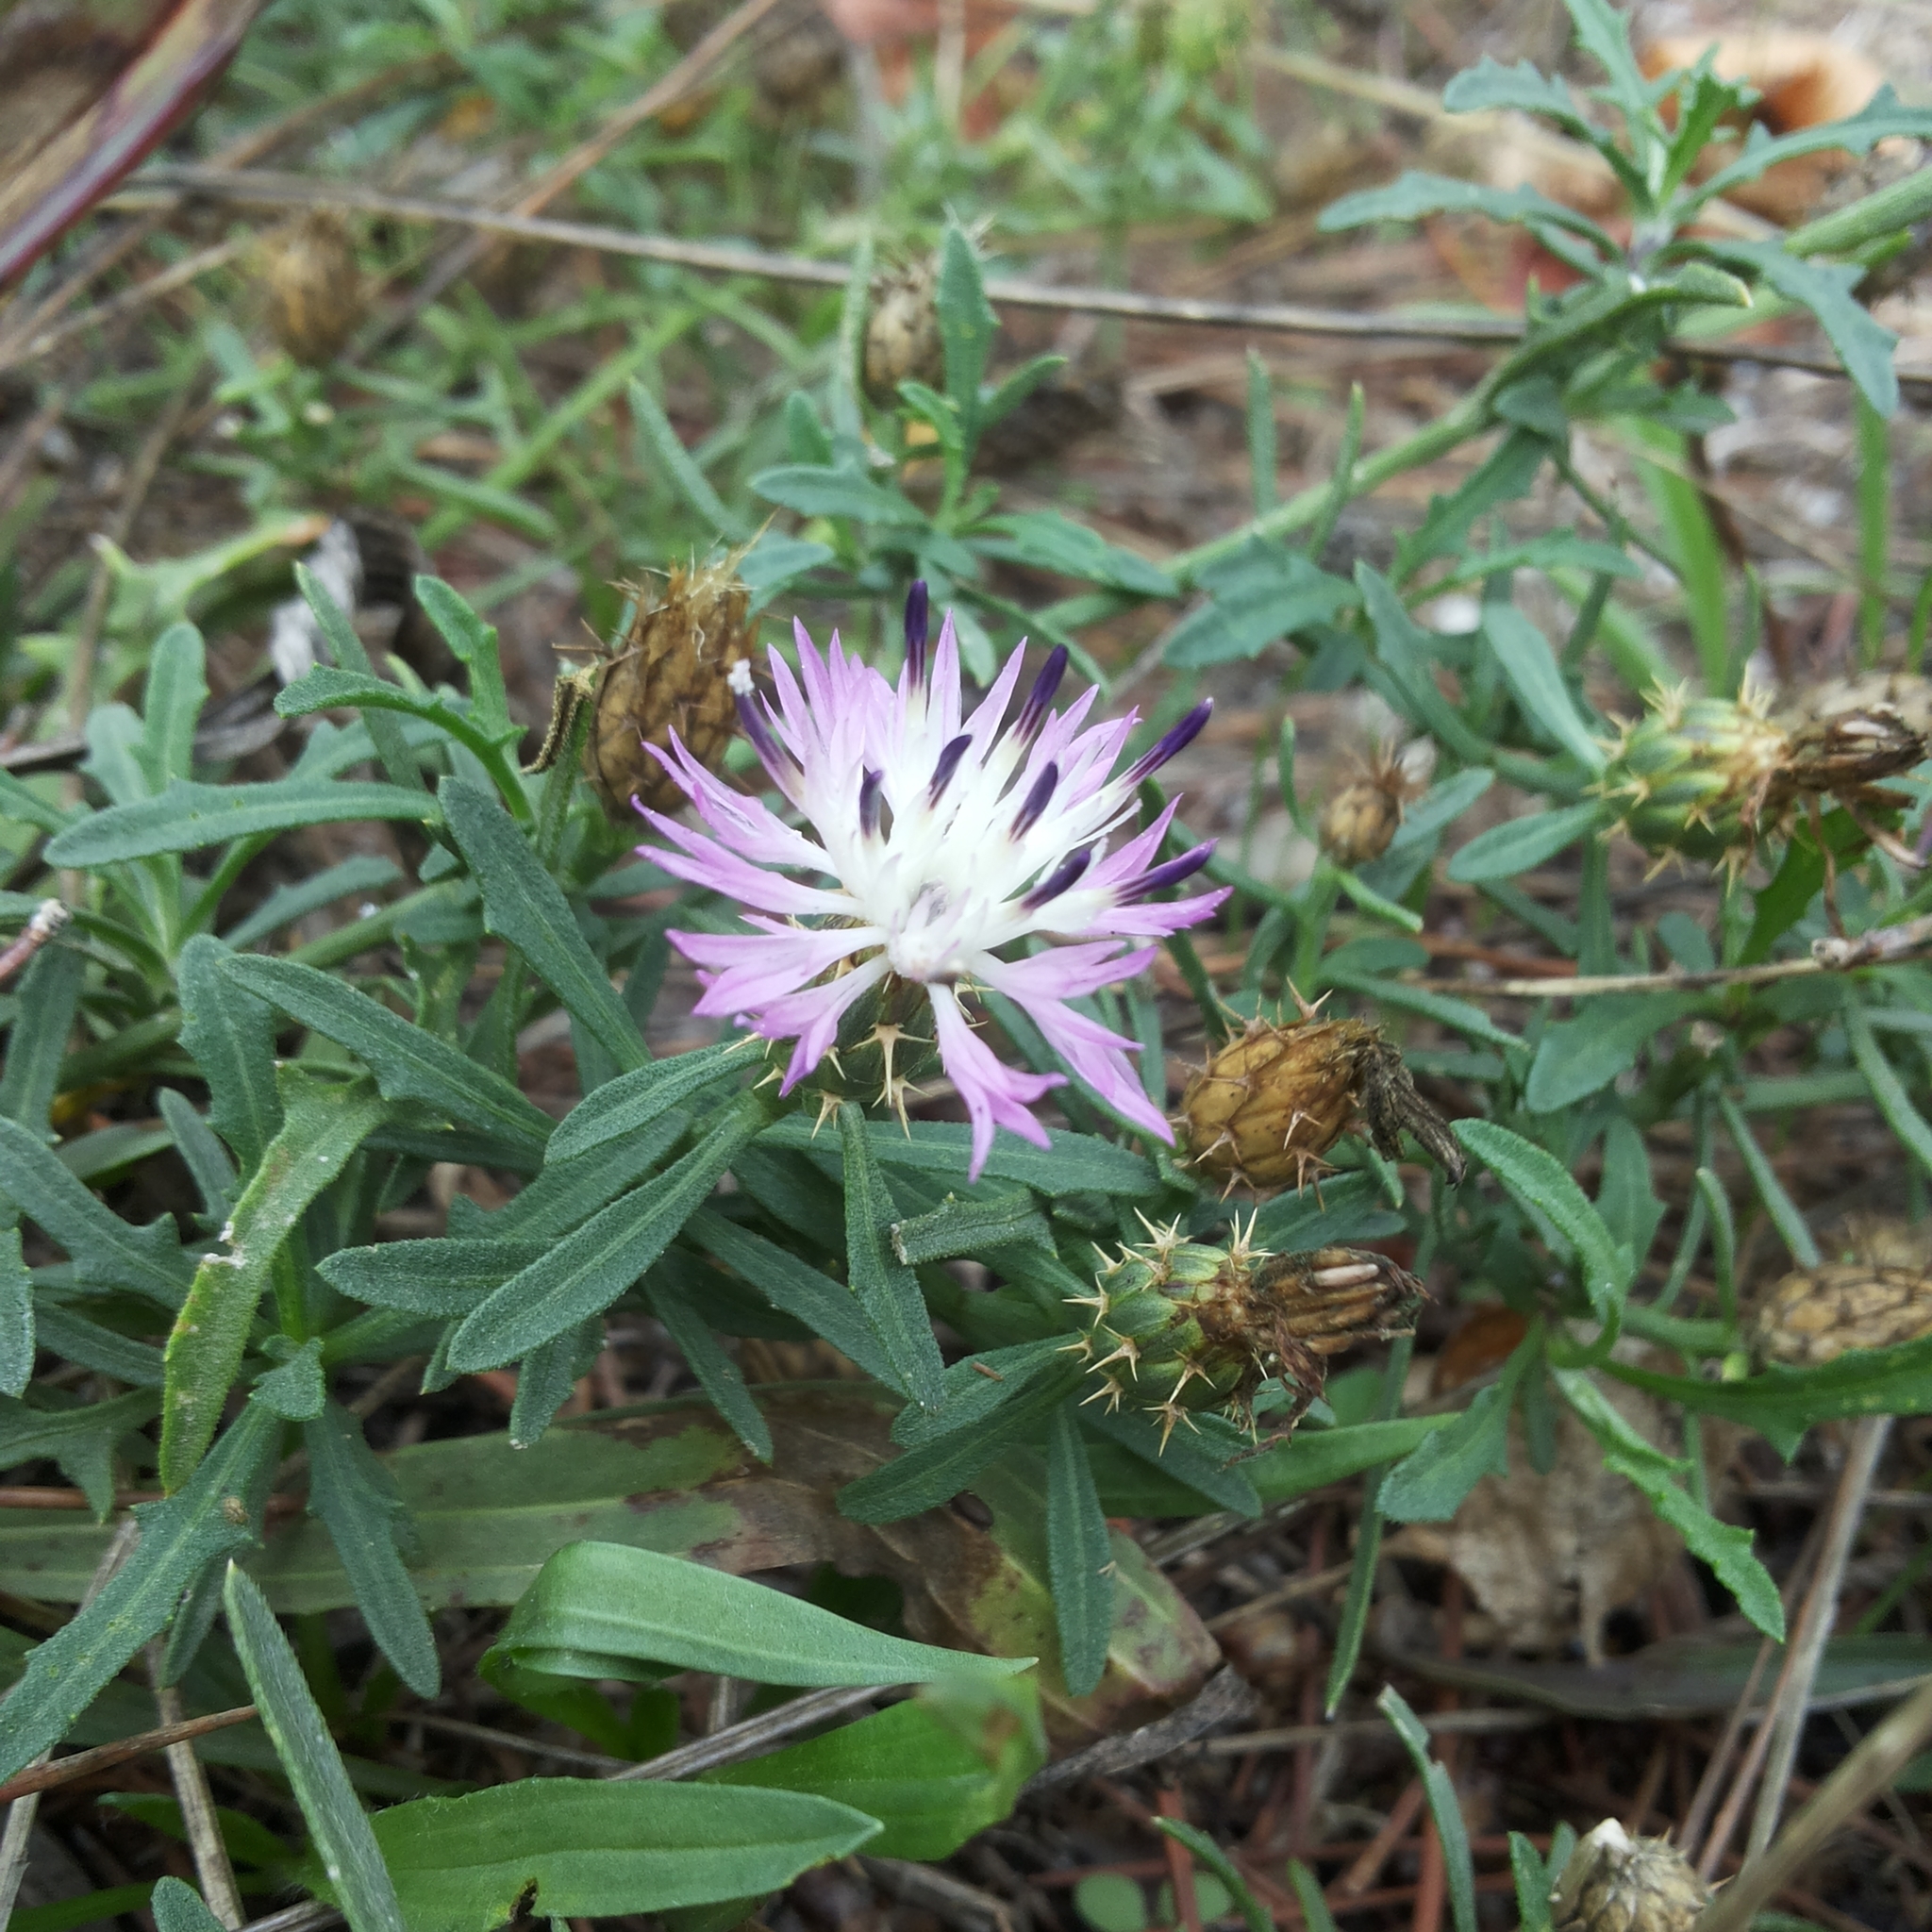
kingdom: Plantae
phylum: Tracheophyta
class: Magnoliopsida
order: Asterales
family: Asteraceae
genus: Centaurea
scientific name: Centaurea aspera
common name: Rough star-thistle
